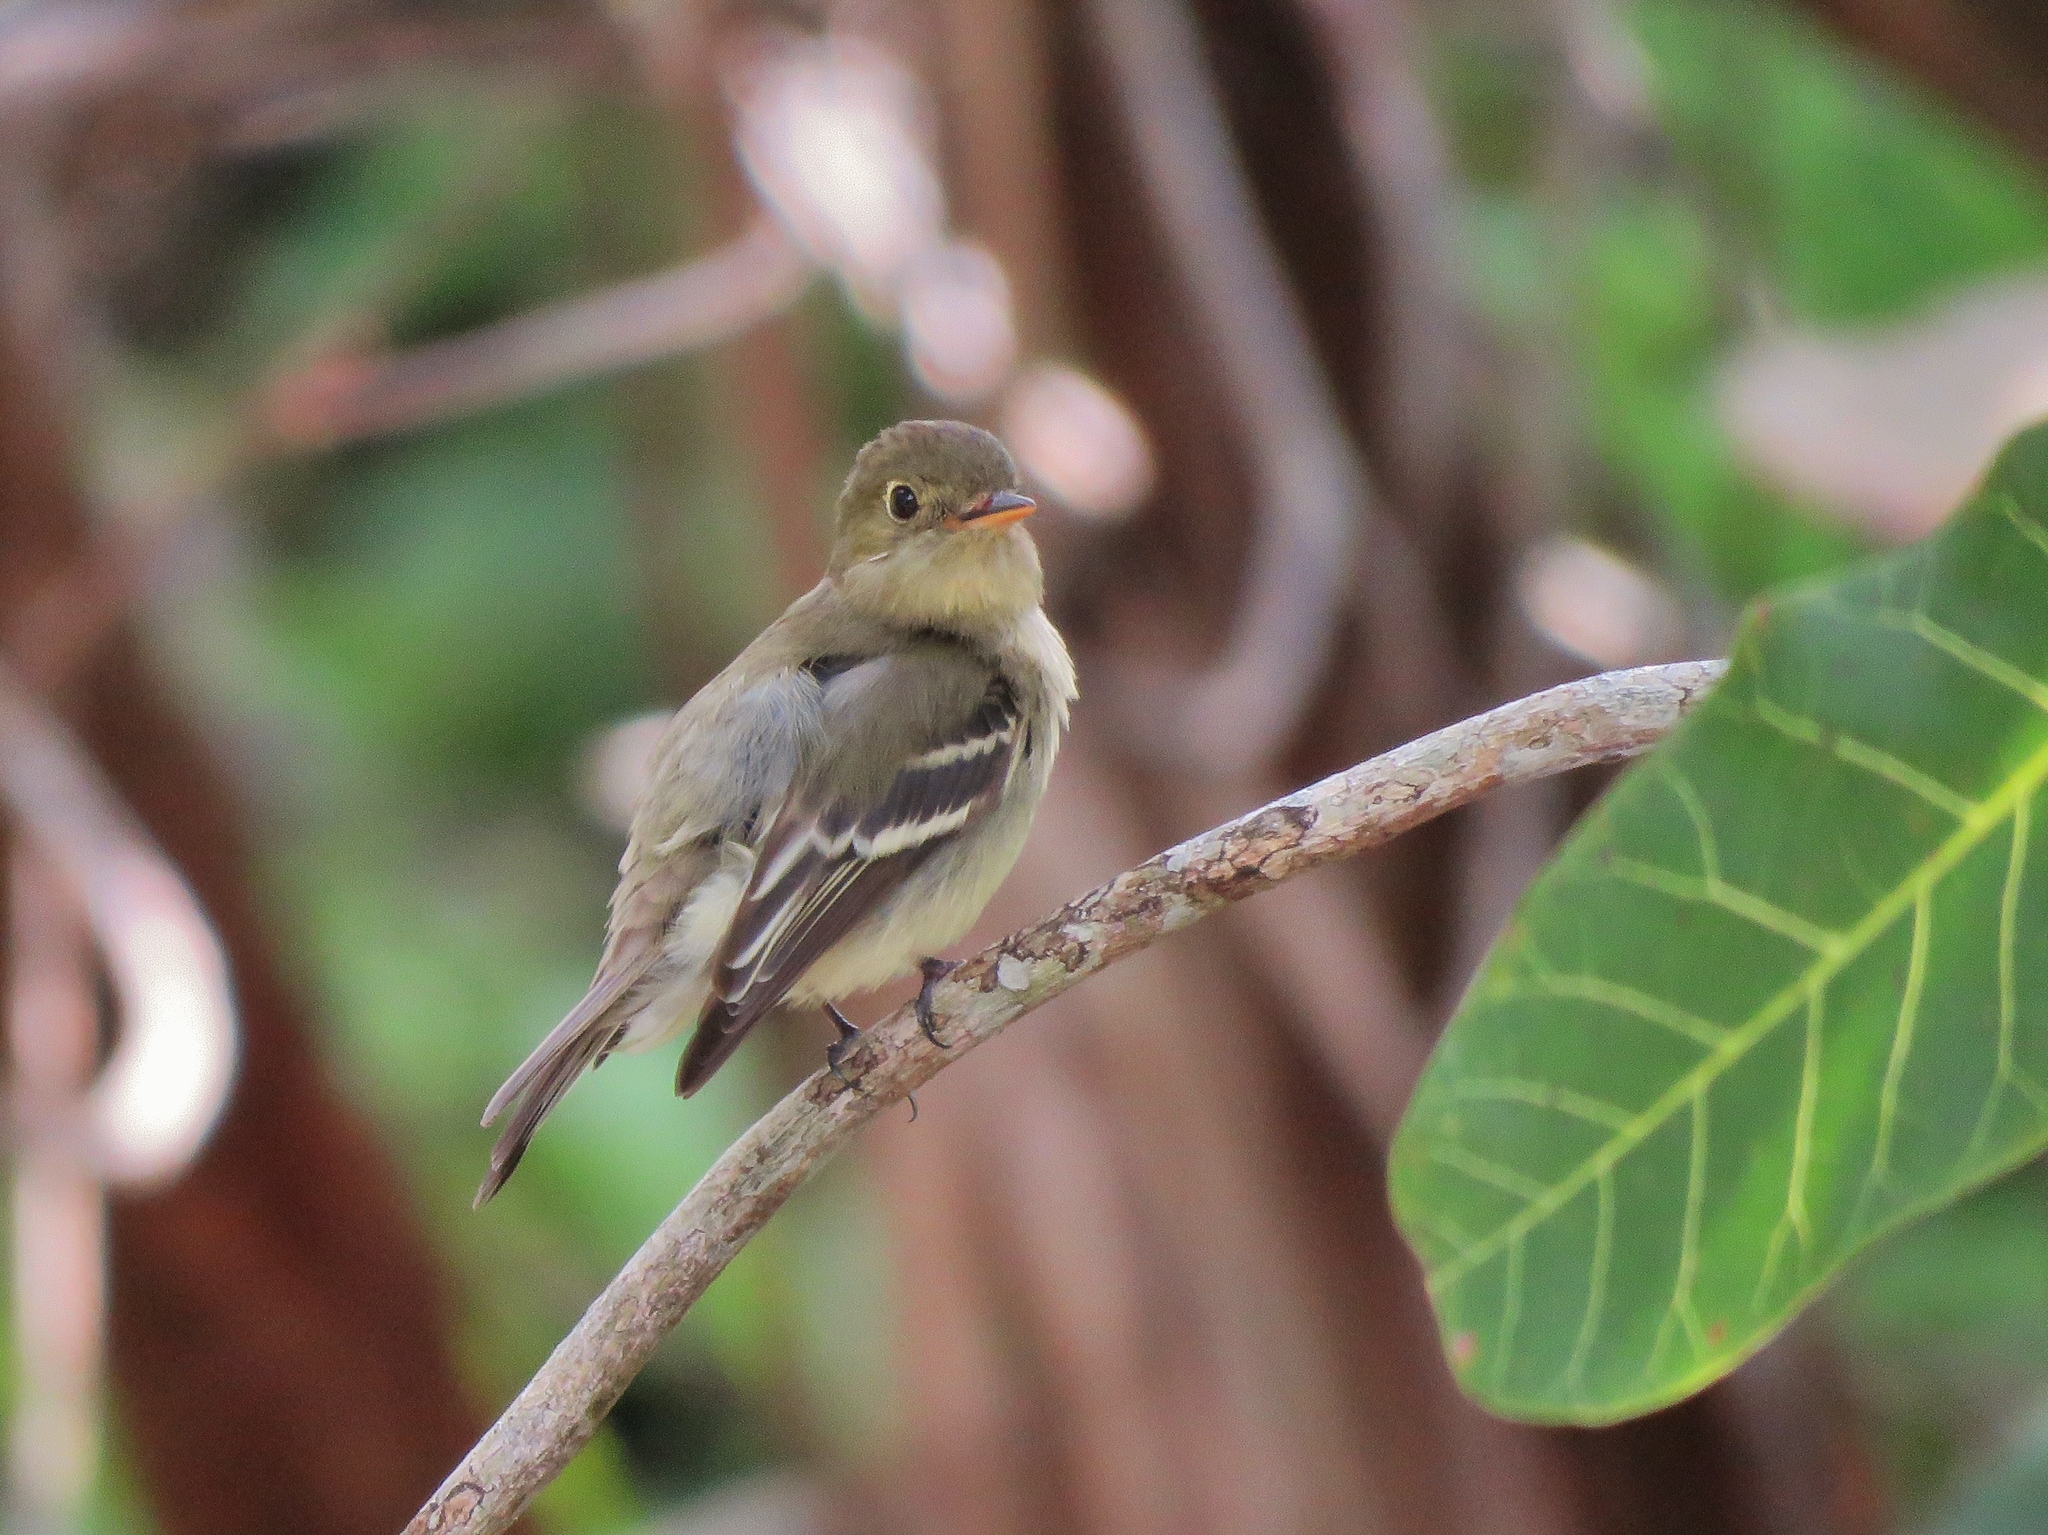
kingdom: Animalia
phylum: Chordata
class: Aves
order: Passeriformes
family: Tyrannidae
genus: Empidonax
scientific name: Empidonax flaviventris
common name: Yellow-bellied flycatcher
